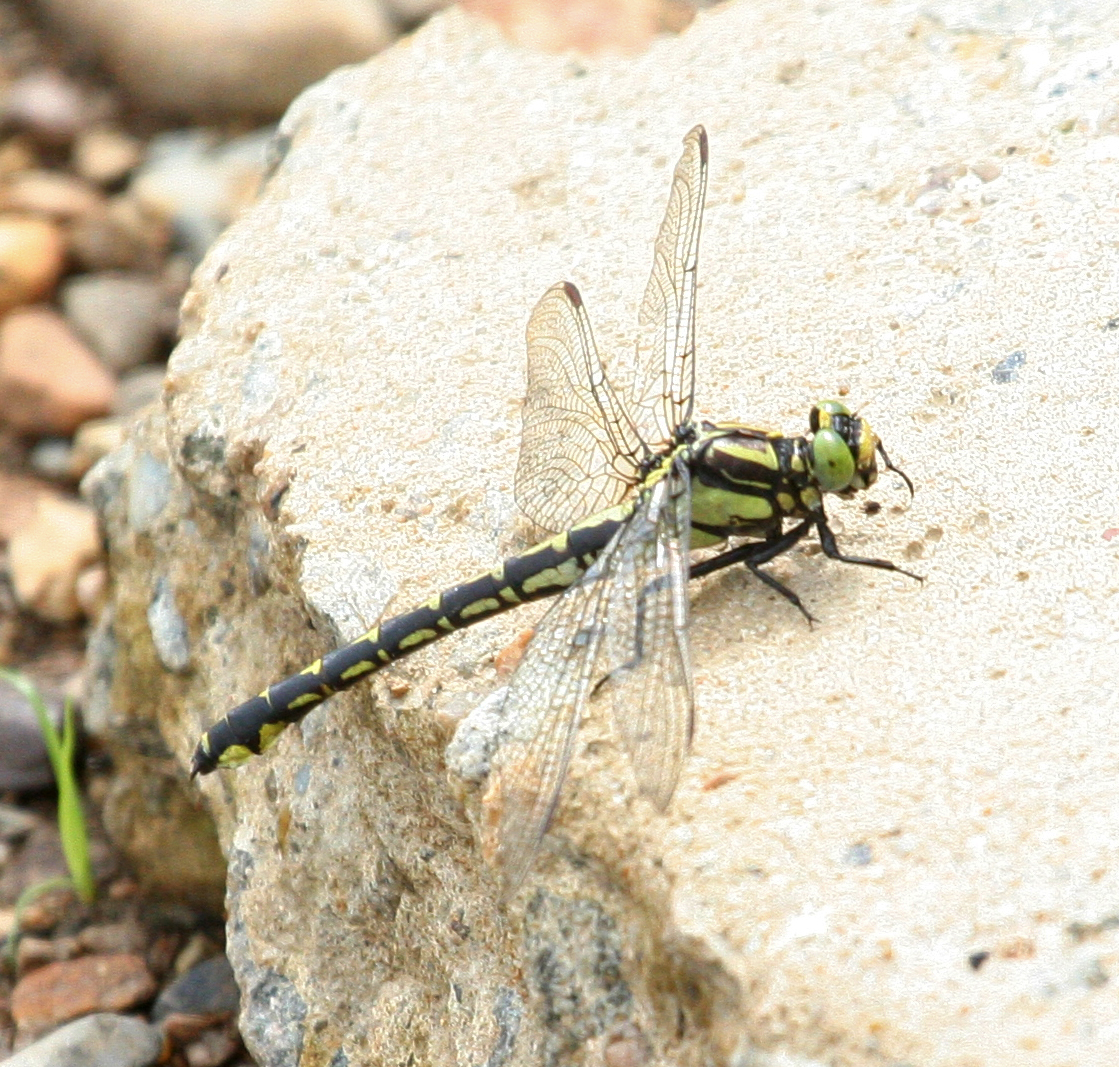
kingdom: Animalia
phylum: Arthropoda
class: Insecta
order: Odonata
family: Gomphidae
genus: Shaogomphus
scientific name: Shaogomphus schmidti
